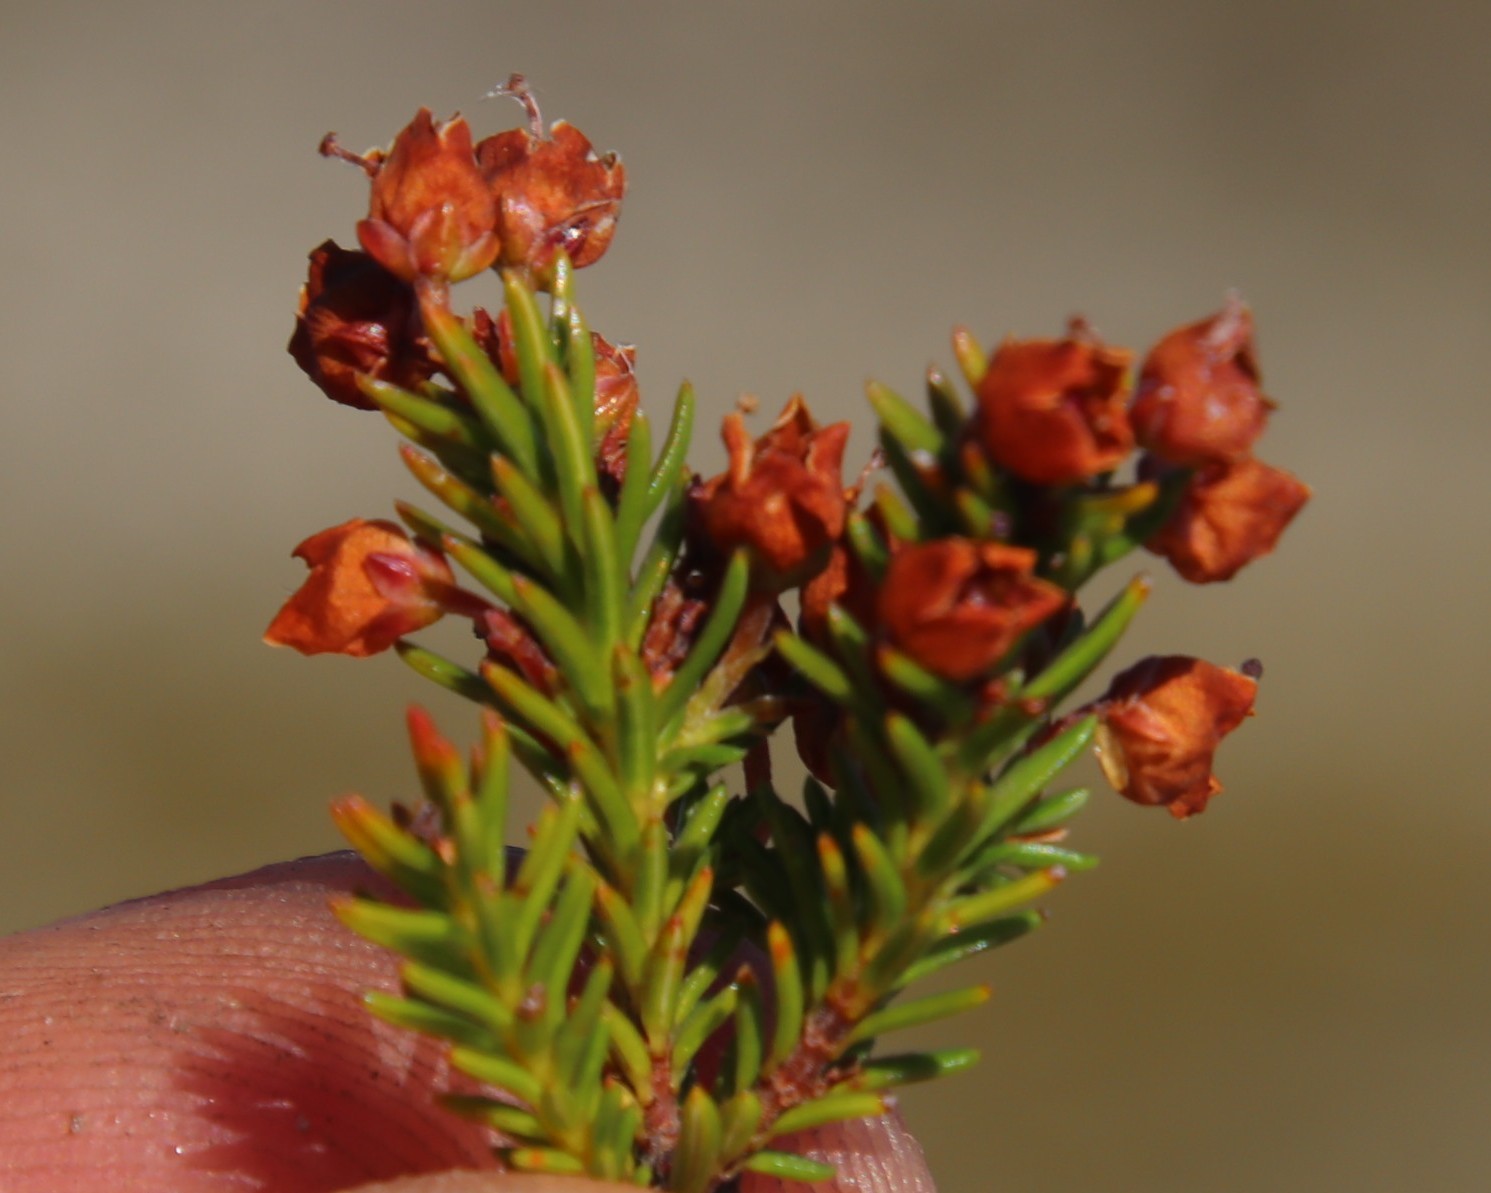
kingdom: Plantae
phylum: Tracheophyta
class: Magnoliopsida
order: Ericales
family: Ericaceae
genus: Erica
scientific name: Erica curvirostris
